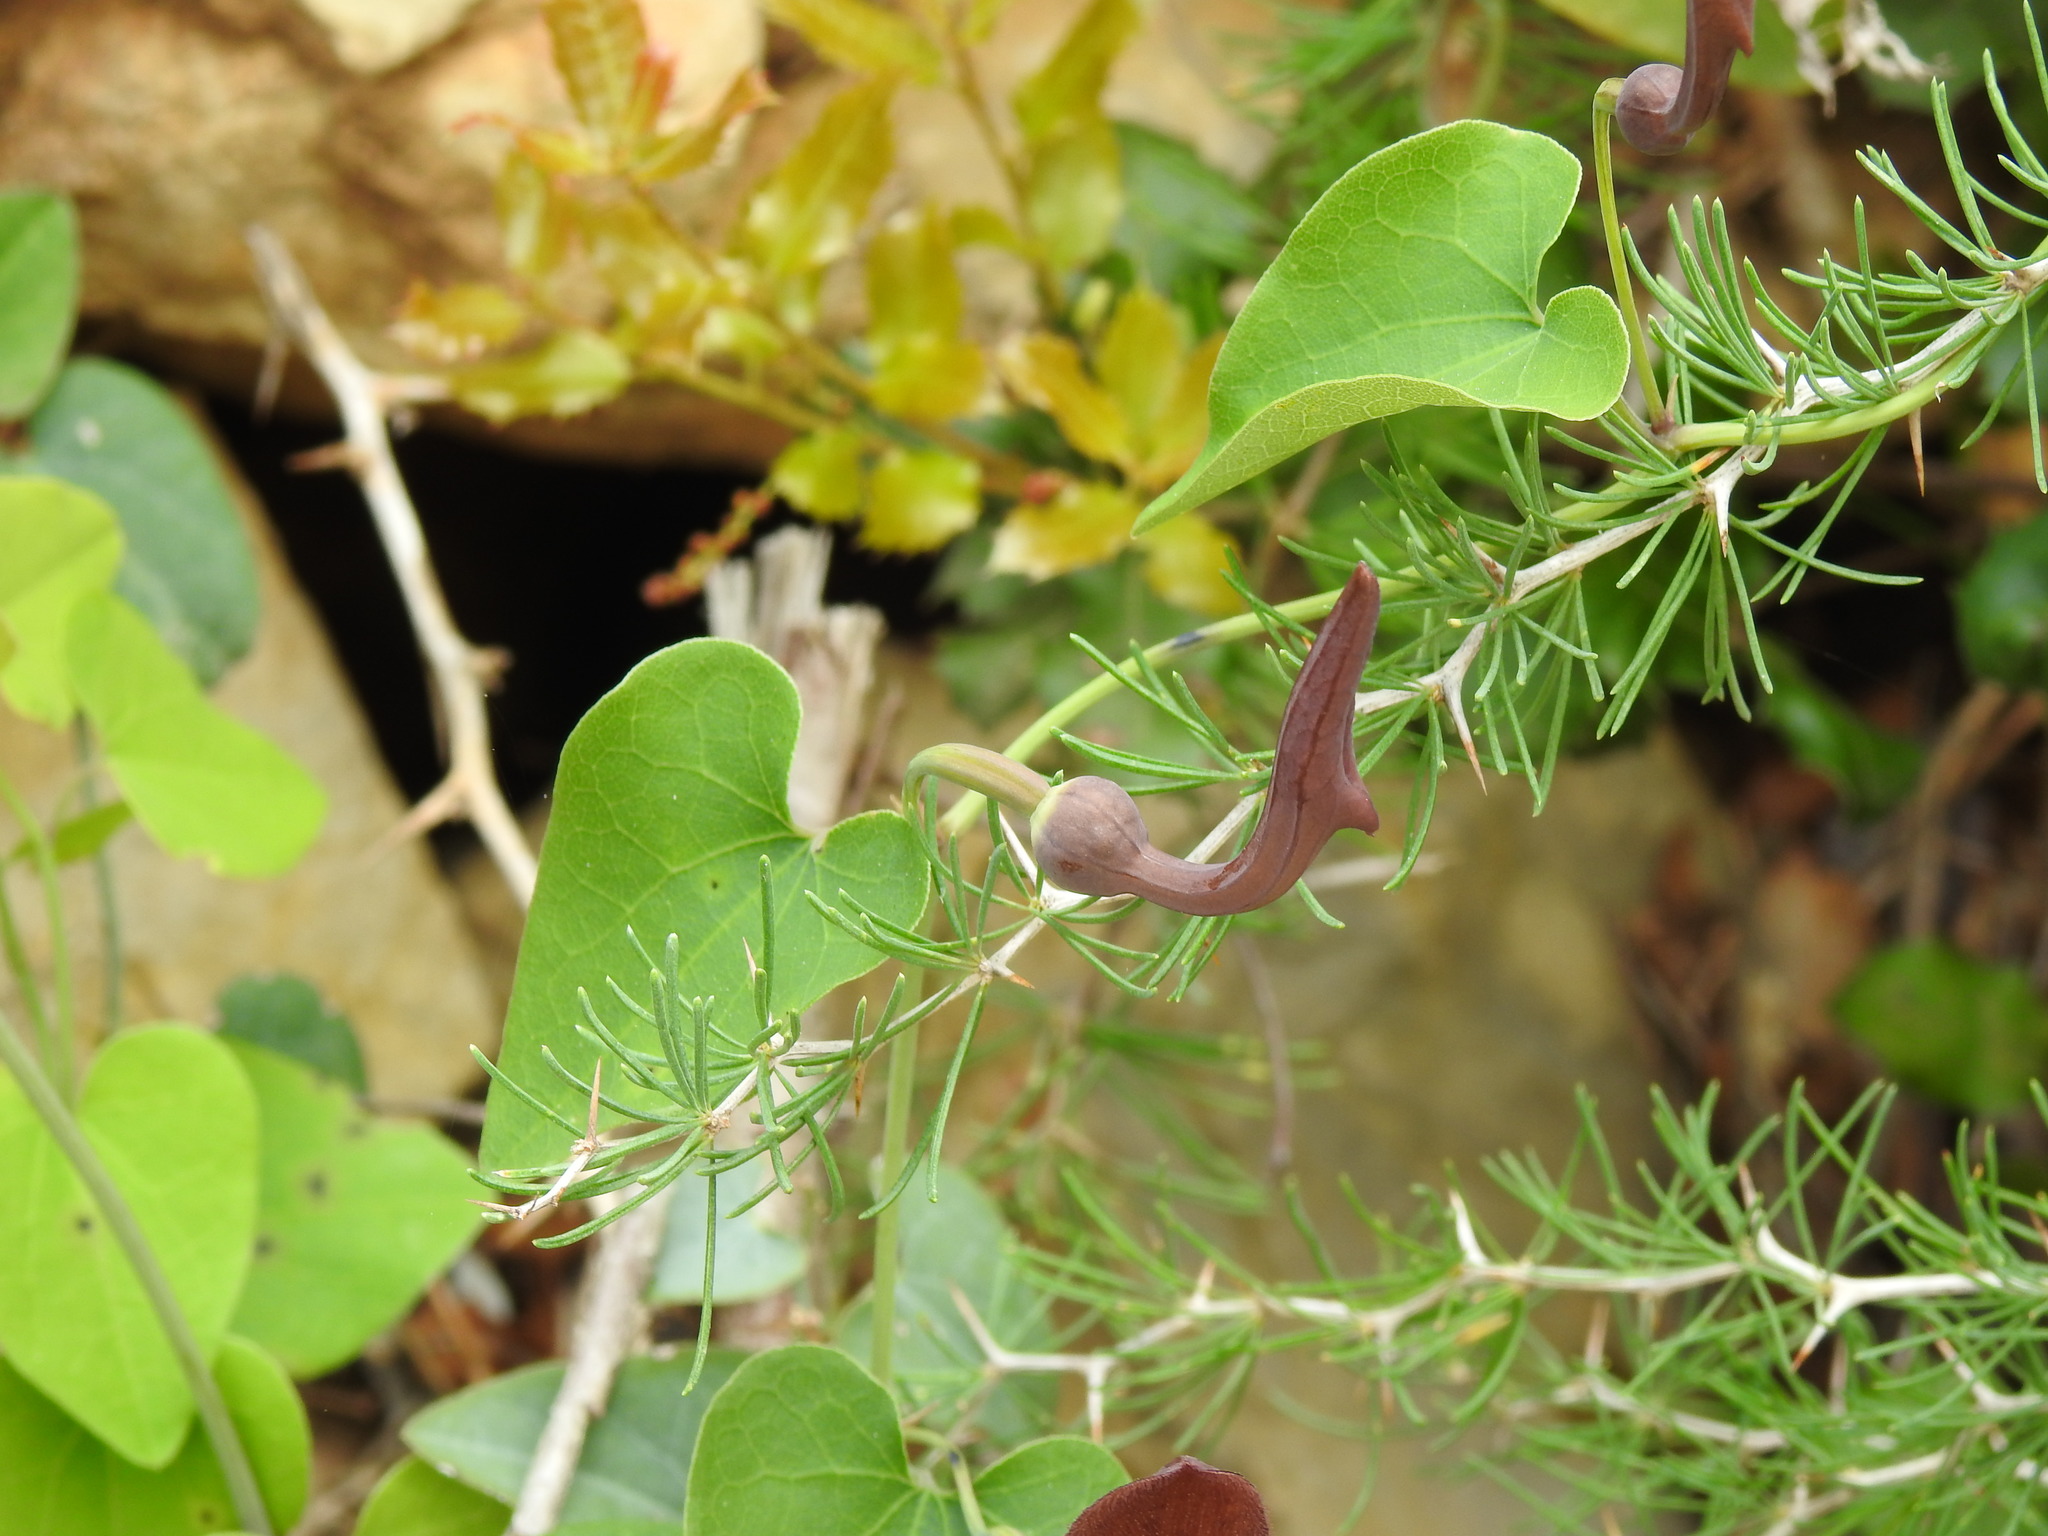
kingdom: Plantae
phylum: Tracheophyta
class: Magnoliopsida
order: Piperales
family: Aristolochiaceae
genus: Aristolochia
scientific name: Aristolochia baetica
